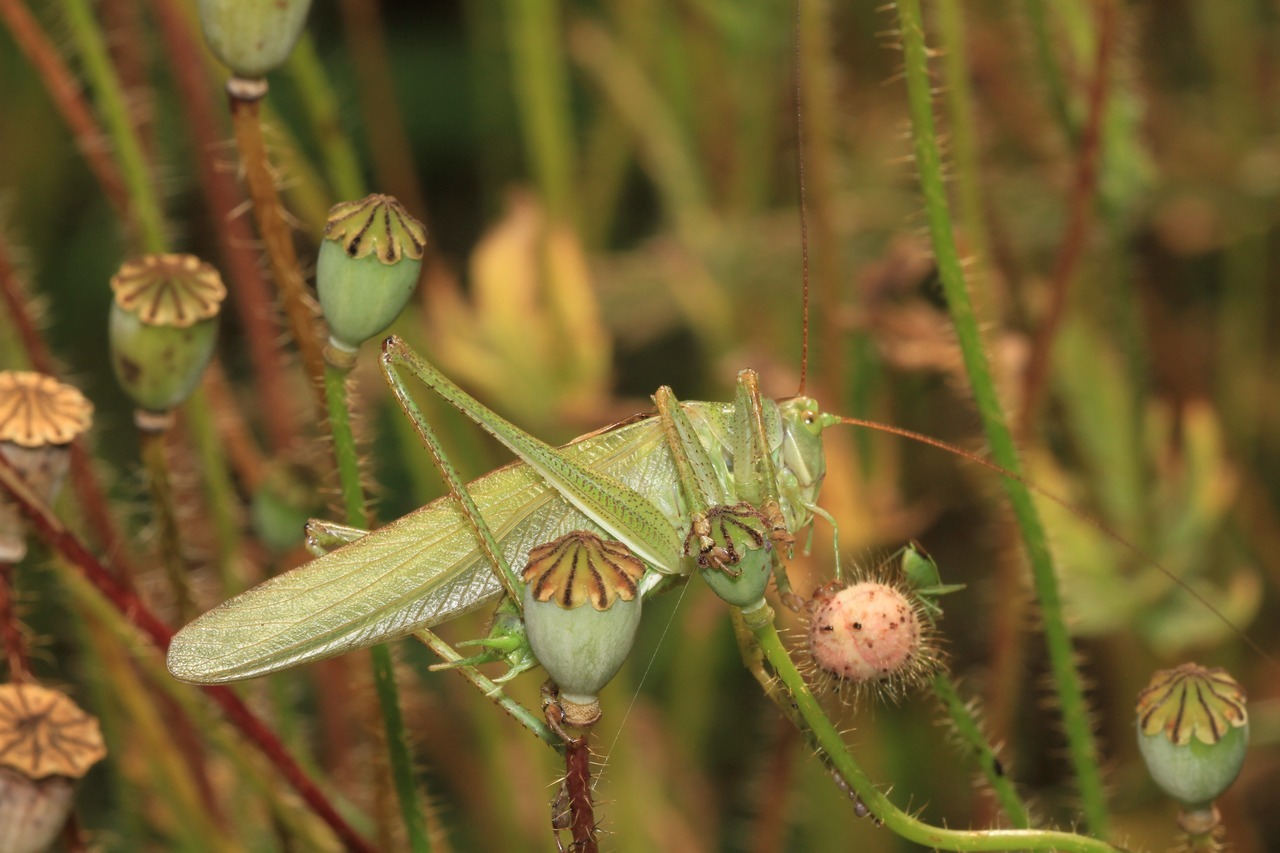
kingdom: Animalia
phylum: Arthropoda
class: Insecta
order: Orthoptera
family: Tettigoniidae
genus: Tettigonia
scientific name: Tettigonia viridissima
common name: Great green bush-cricket
